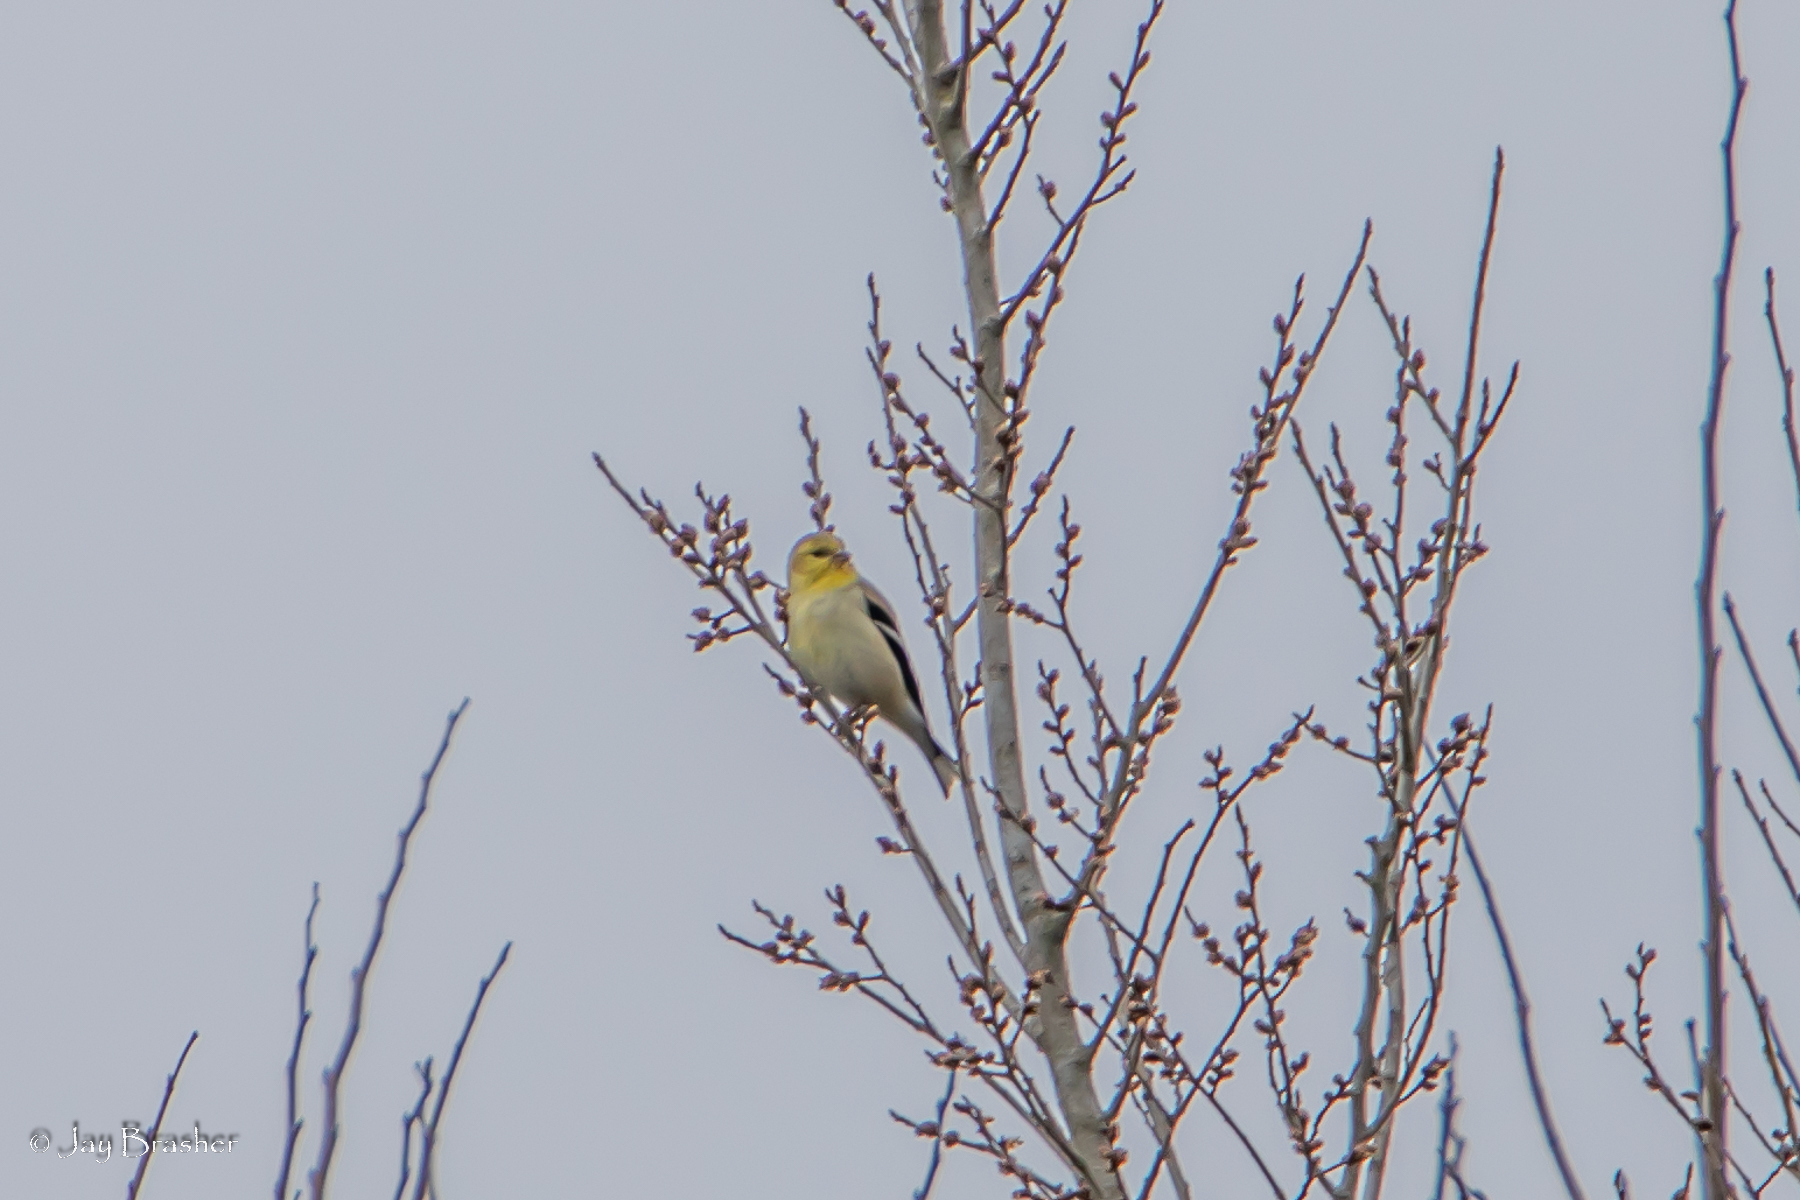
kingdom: Animalia
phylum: Chordata
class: Aves
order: Passeriformes
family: Fringillidae
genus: Spinus
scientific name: Spinus tristis
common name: American goldfinch
